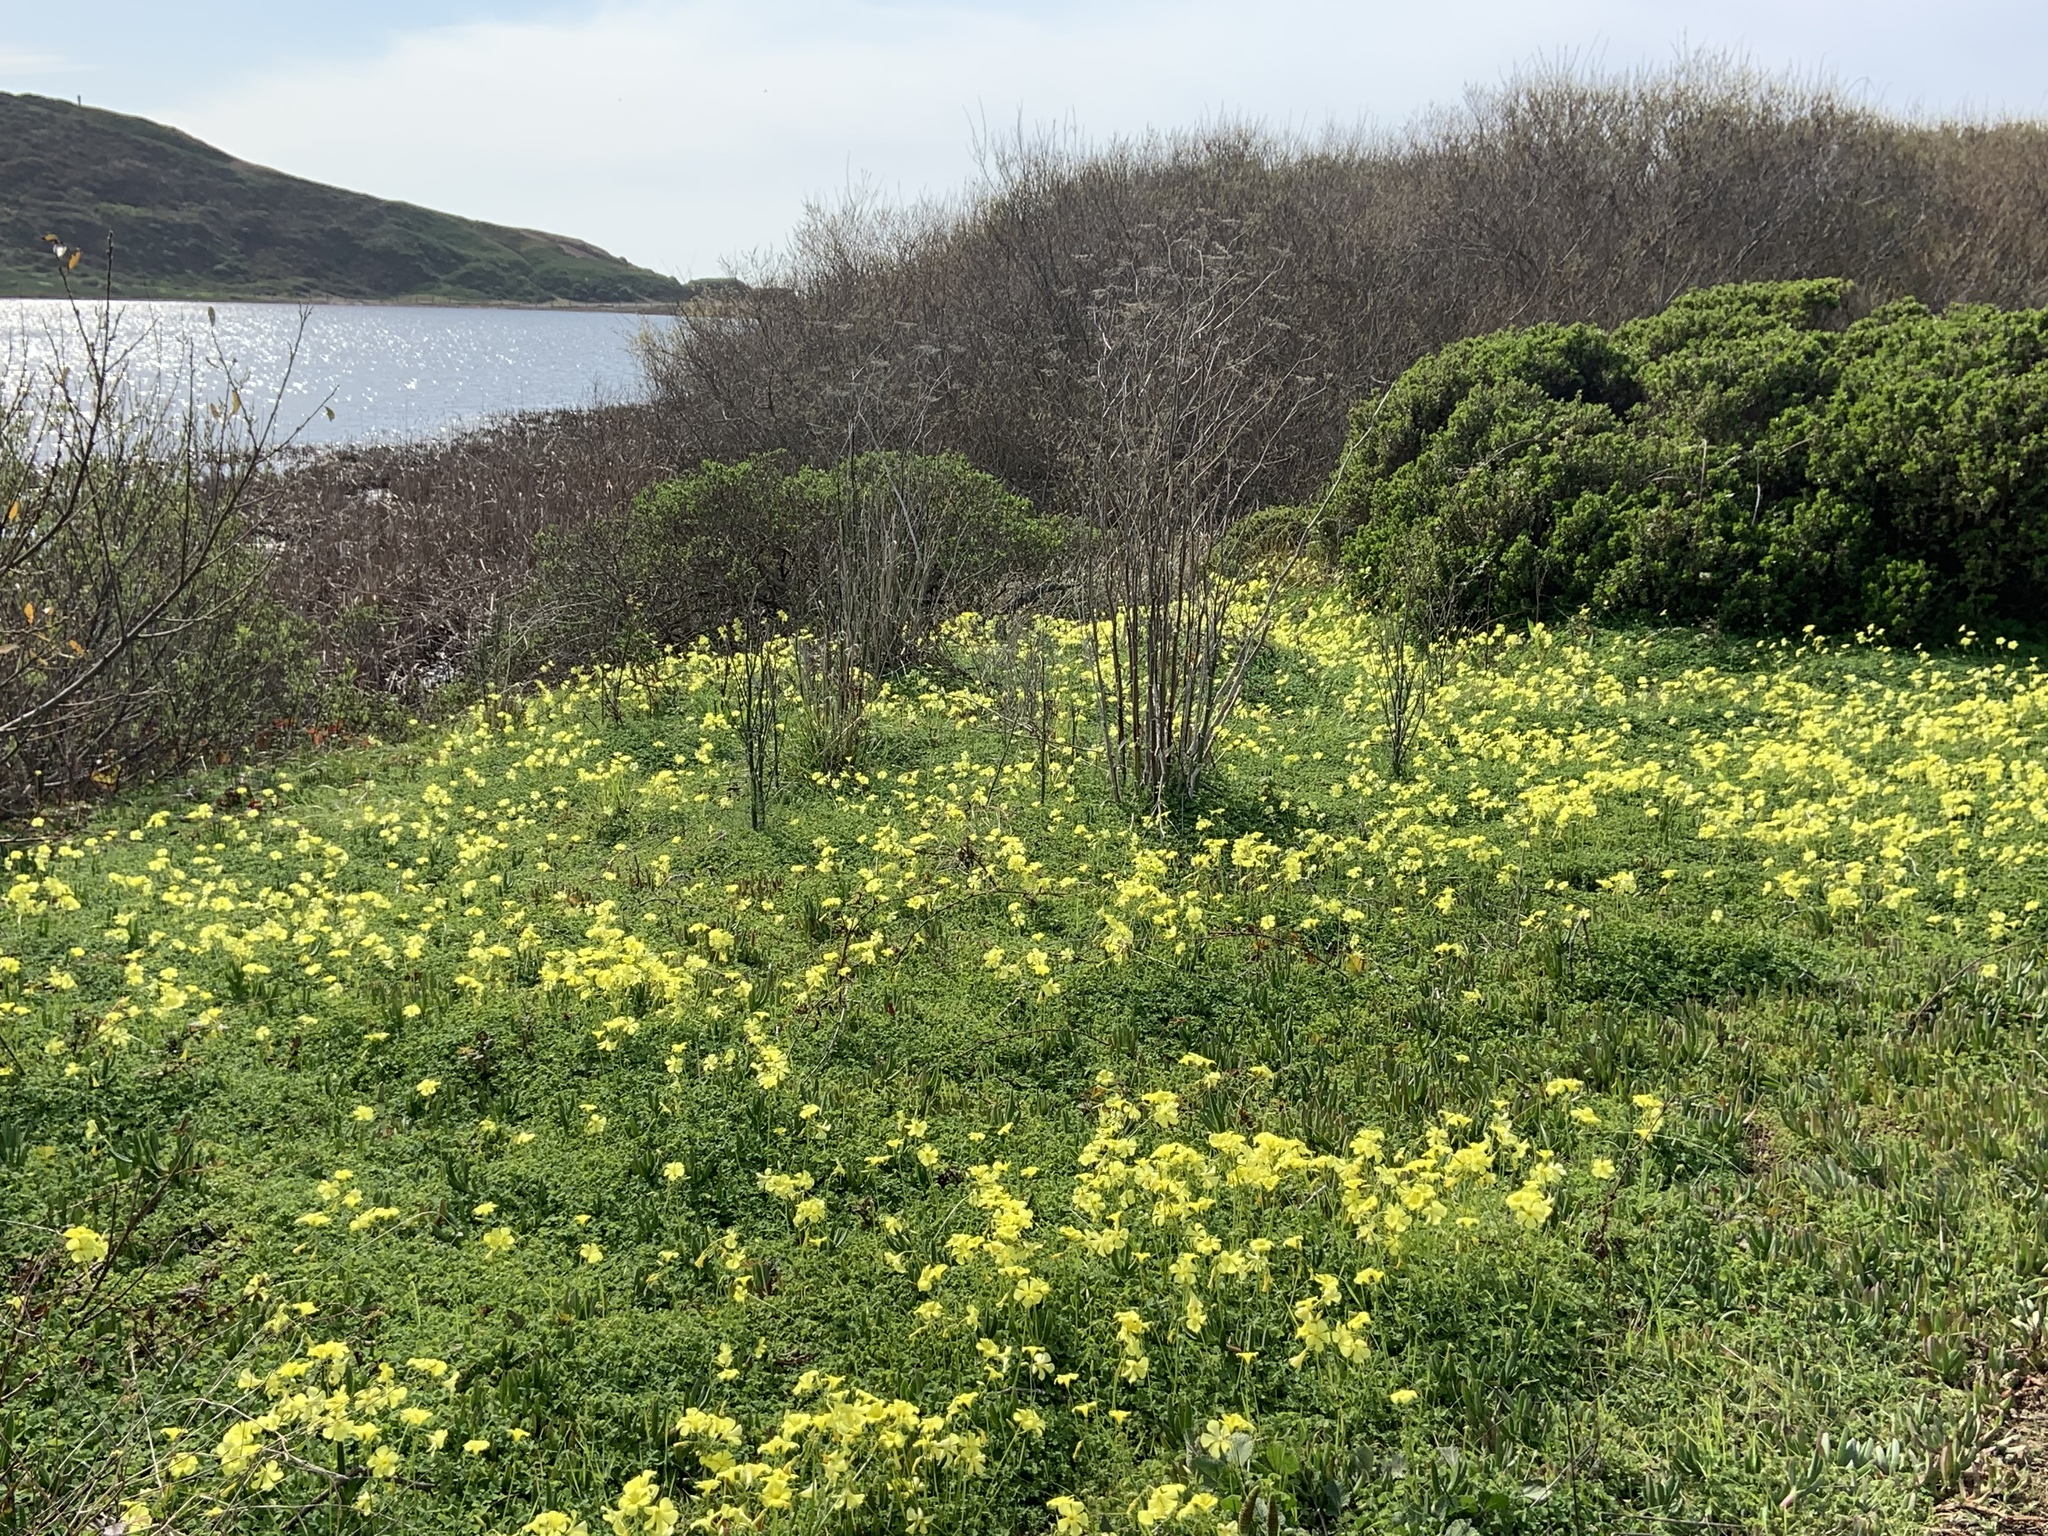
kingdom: Plantae
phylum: Tracheophyta
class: Magnoliopsida
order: Oxalidales
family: Oxalidaceae
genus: Oxalis
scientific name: Oxalis pes-caprae
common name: Bermuda-buttercup
